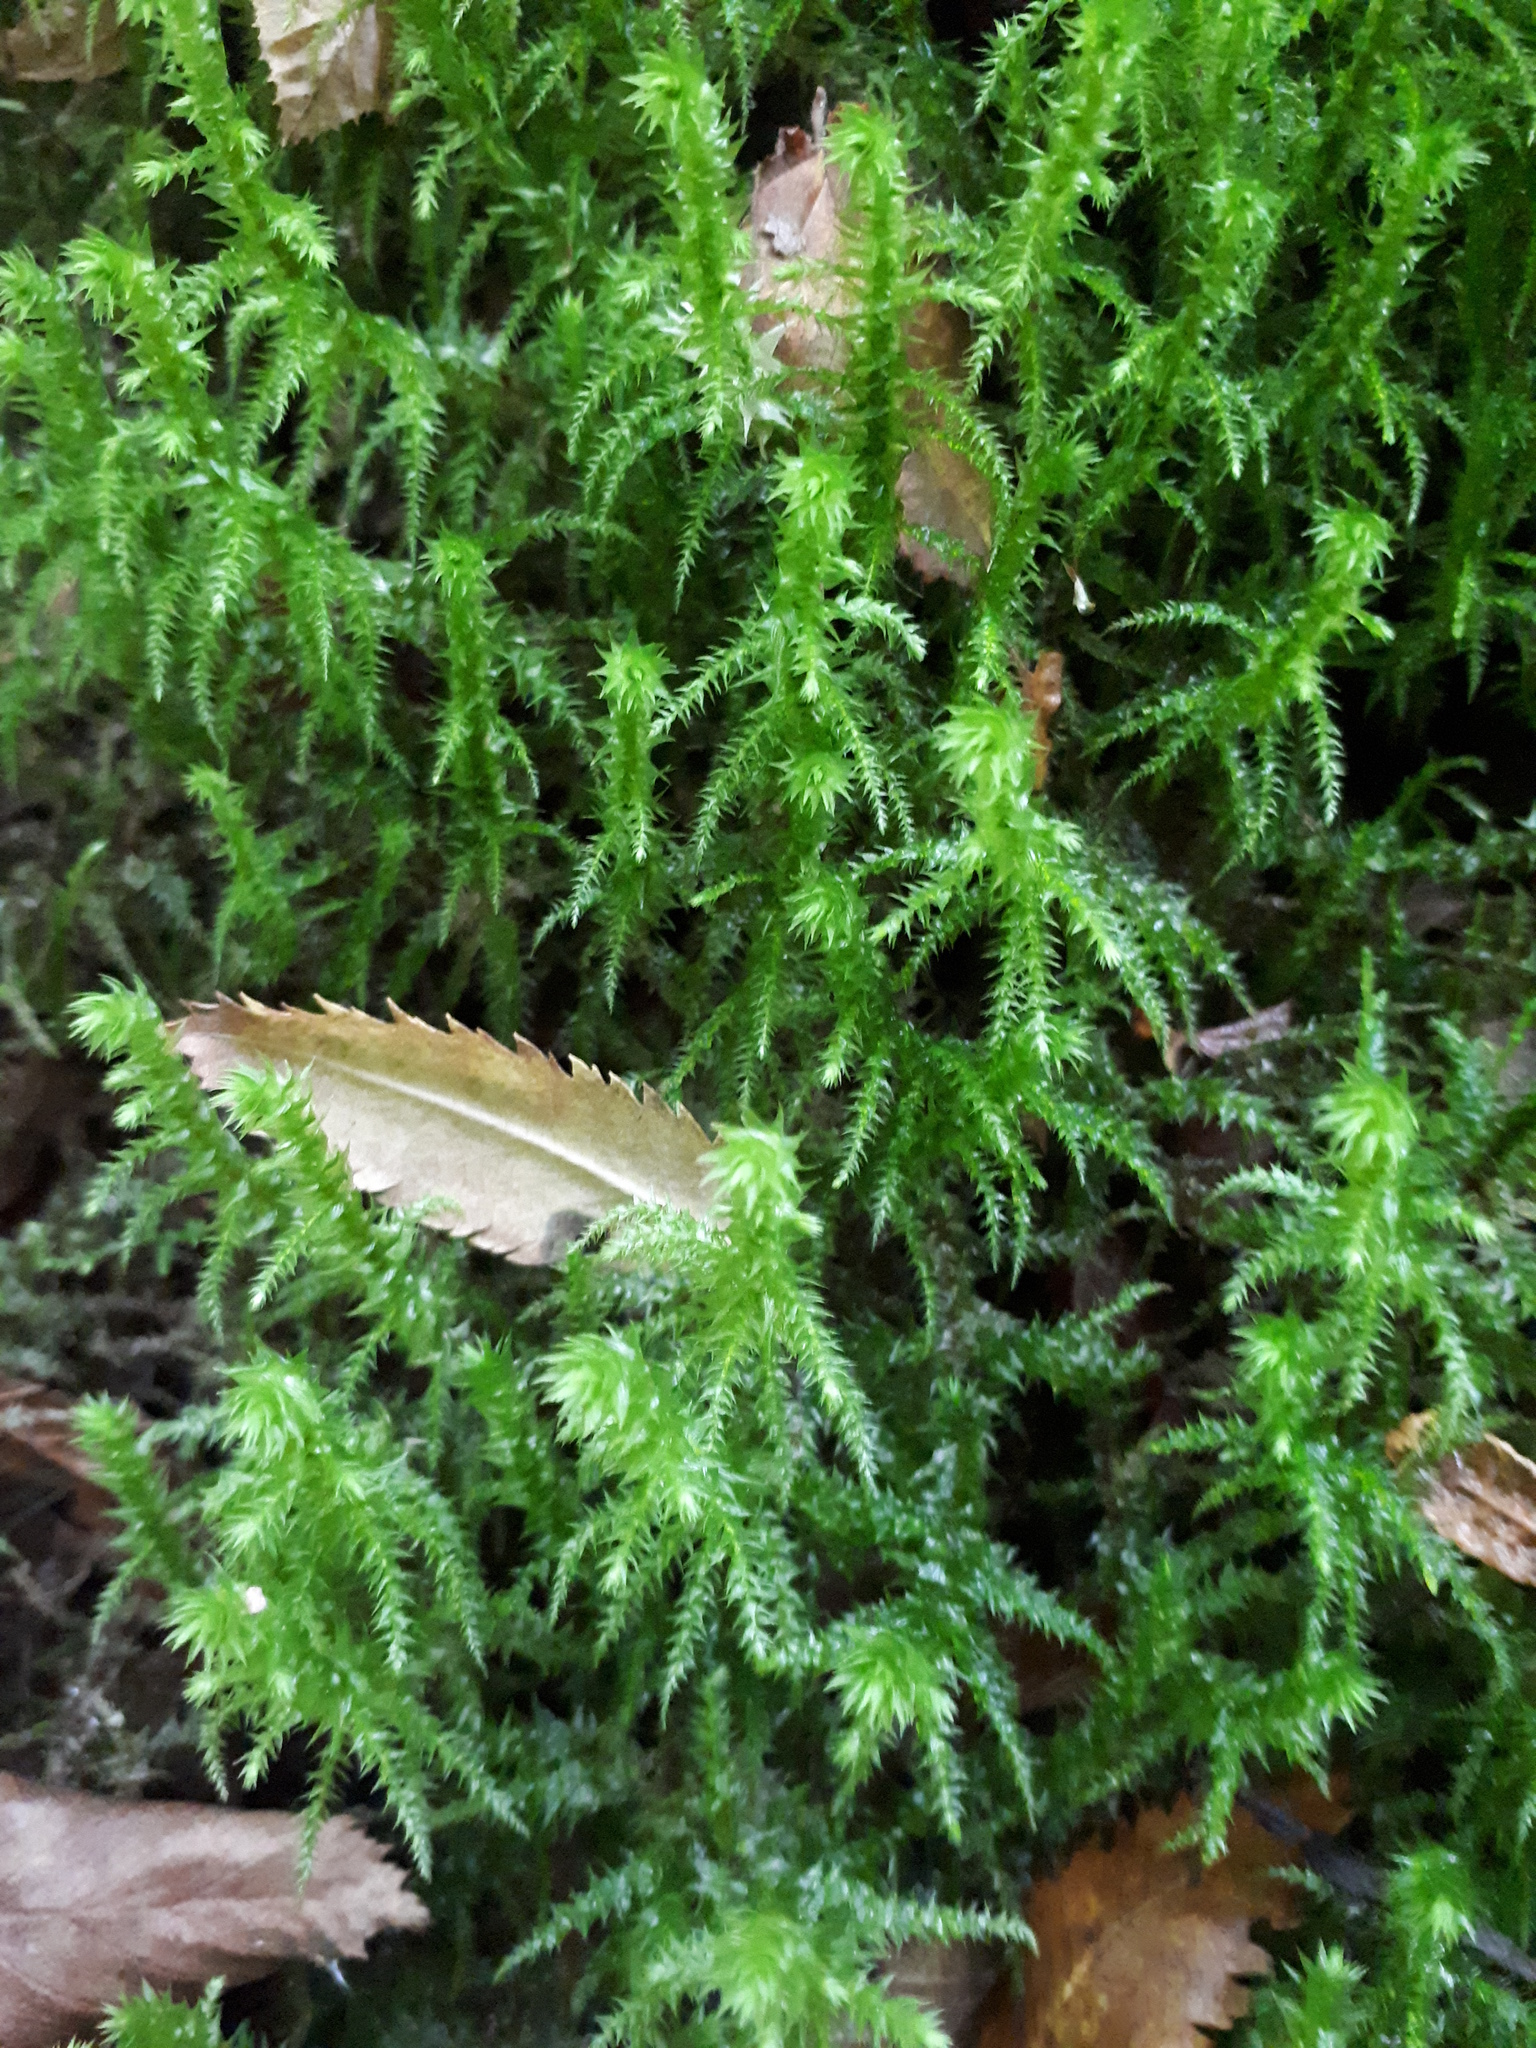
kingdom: Plantae
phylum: Bryophyta
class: Bryopsida
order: Hypnales
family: Hylocomiaceae
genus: Hylocomiadelphus
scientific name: Hylocomiadelphus triquetrus
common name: Rough goose neck moss
